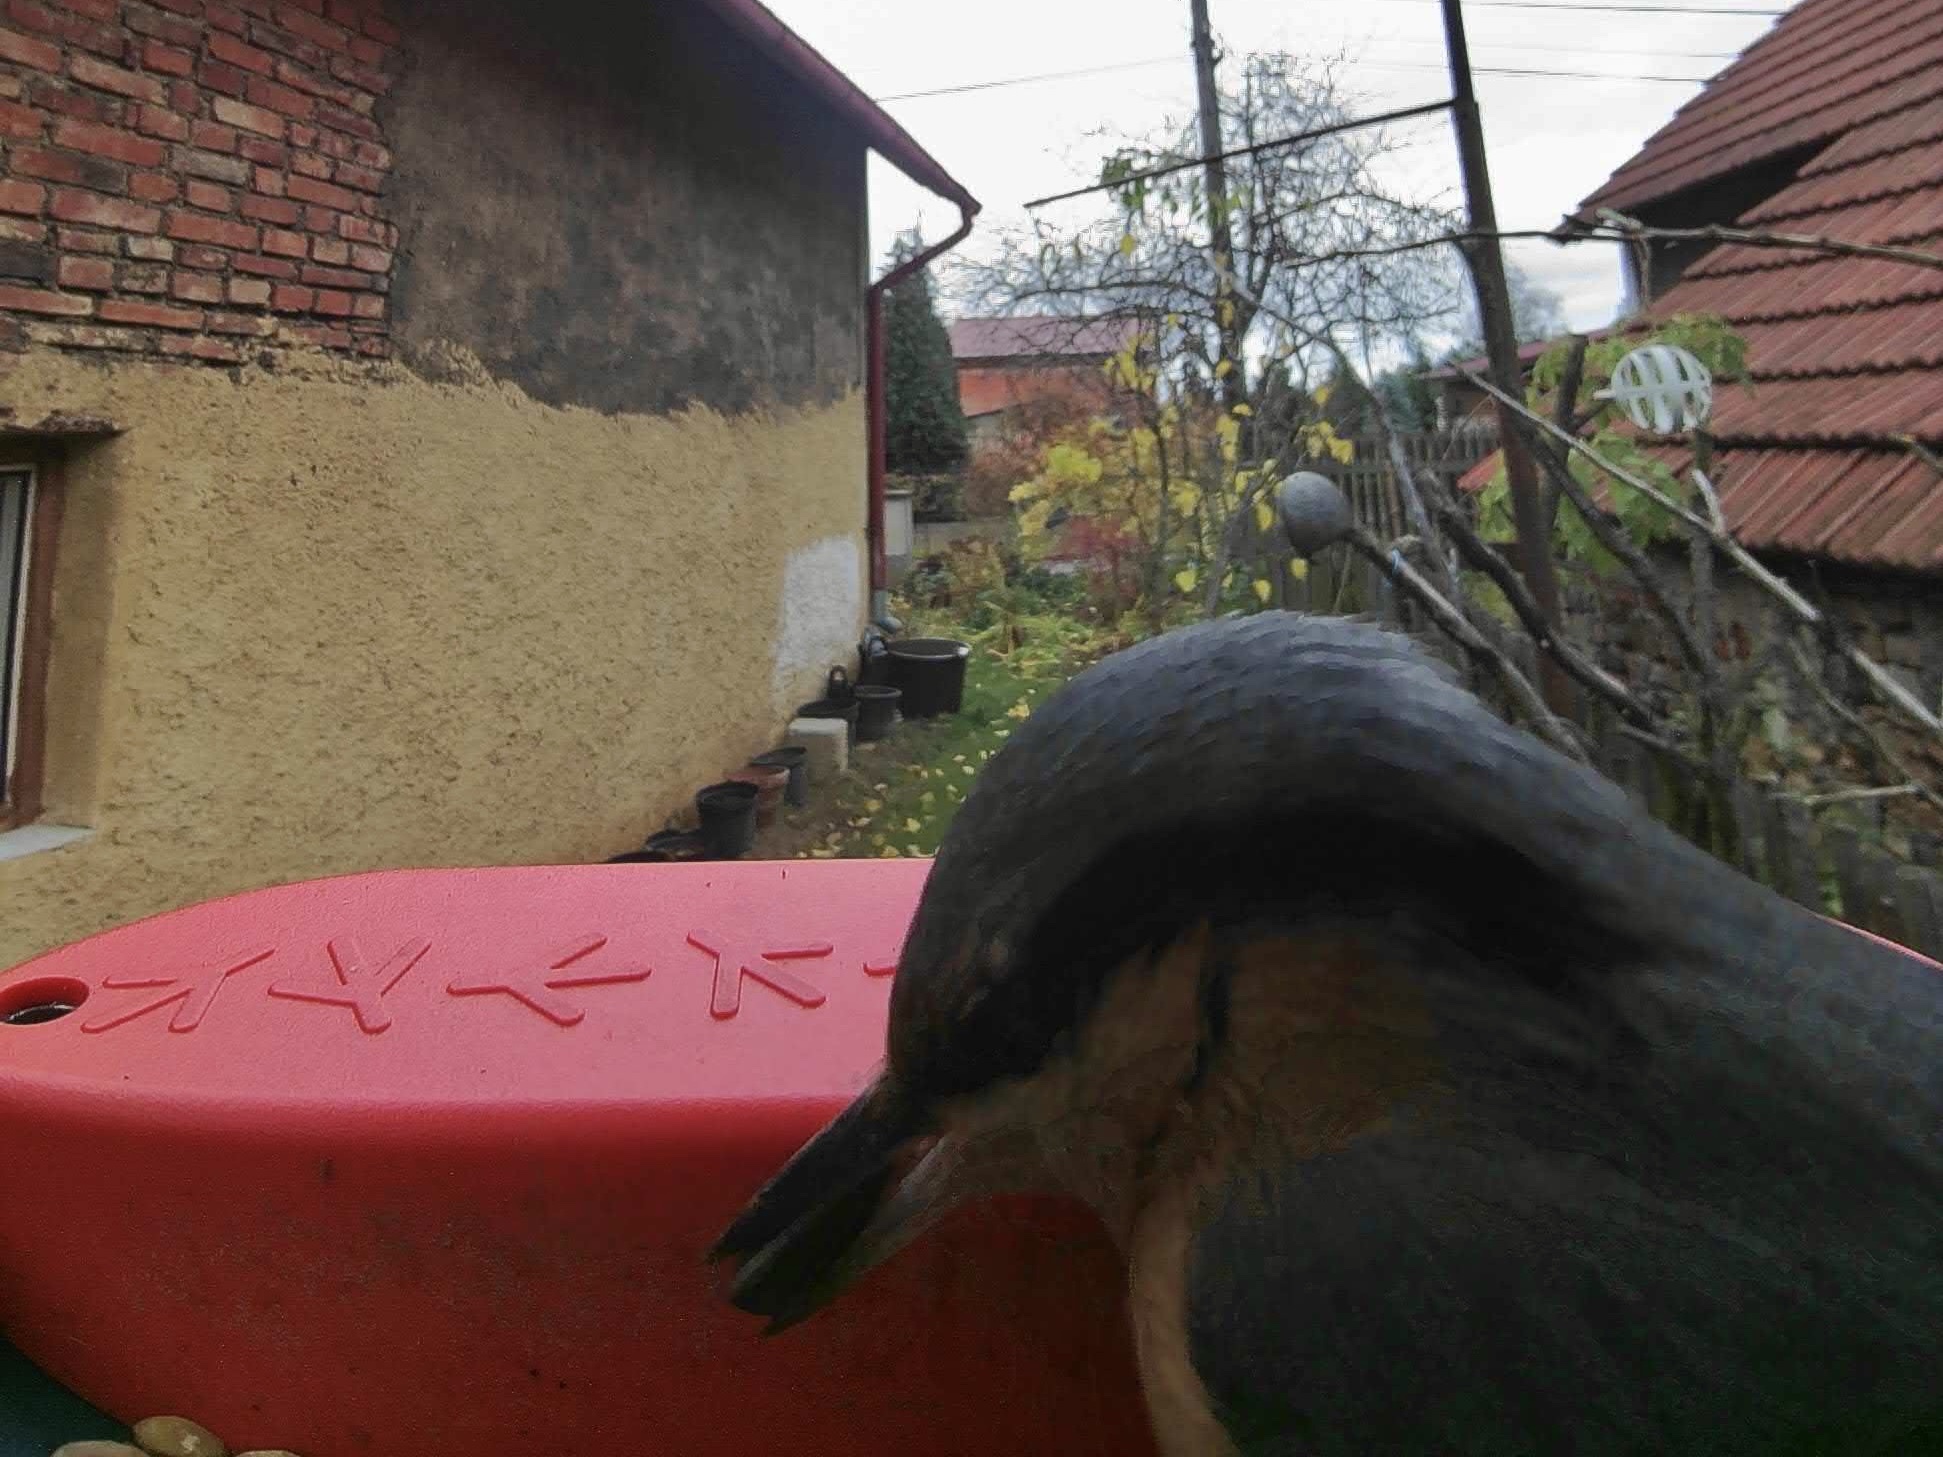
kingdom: Animalia
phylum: Chordata
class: Aves
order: Passeriformes
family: Sittidae
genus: Sitta
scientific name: Sitta europaea
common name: Eurasian nuthatch
